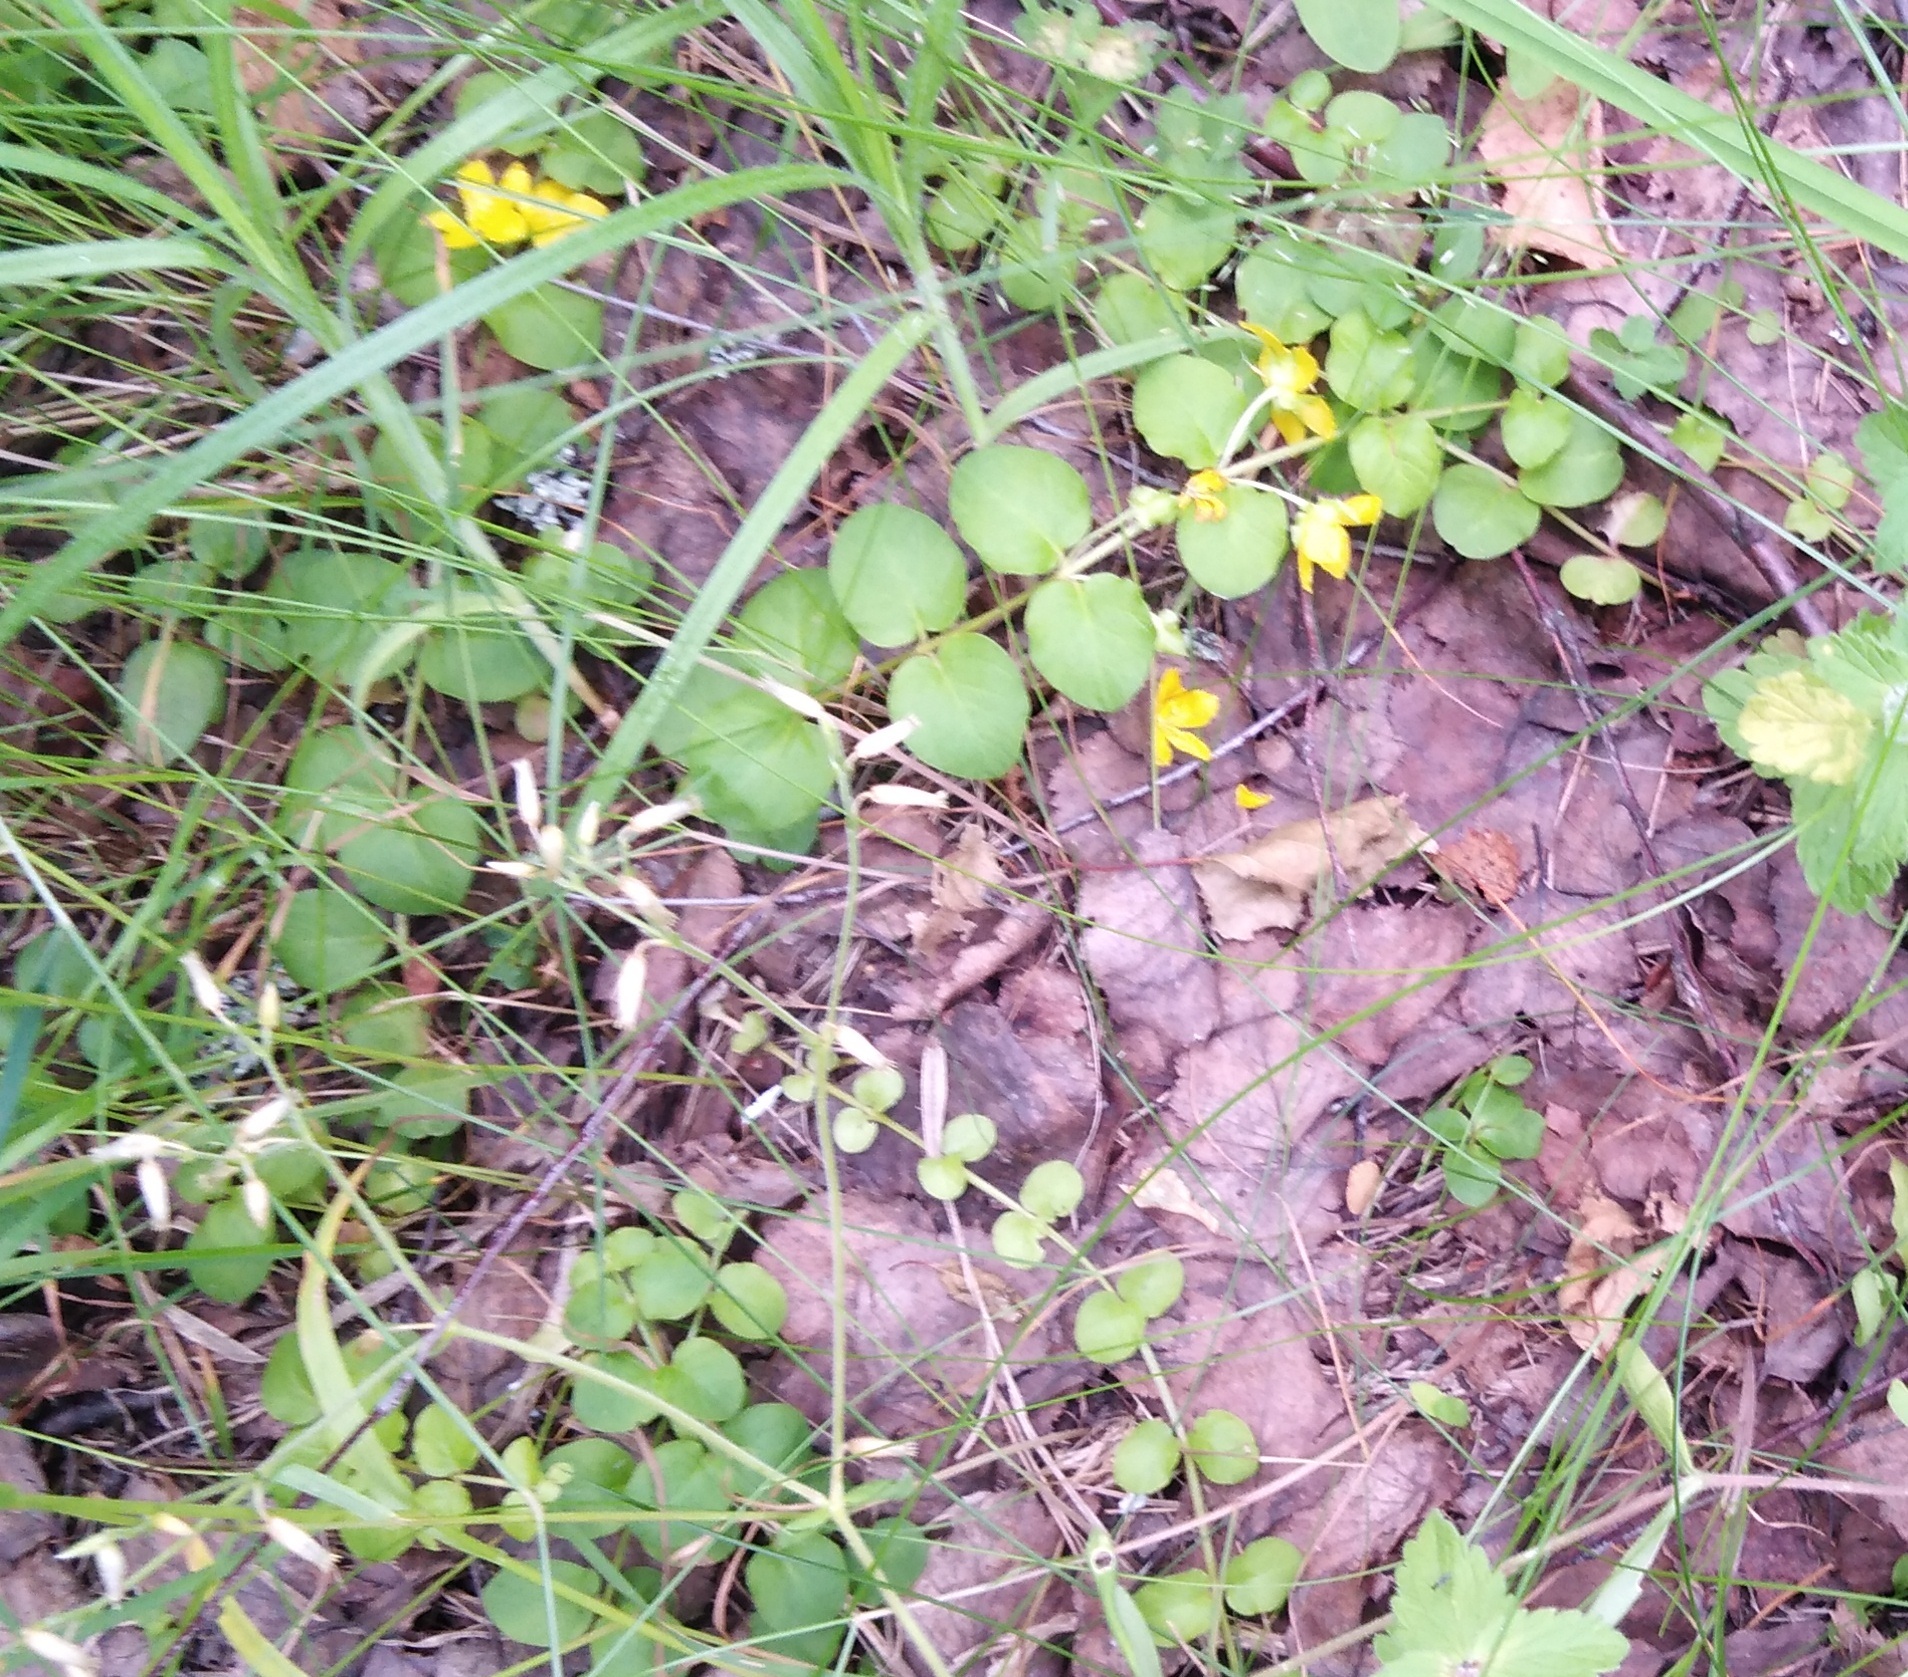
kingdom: Plantae
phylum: Tracheophyta
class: Magnoliopsida
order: Ericales
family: Primulaceae
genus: Lysimachia
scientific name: Lysimachia nummularia
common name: Moneywort
